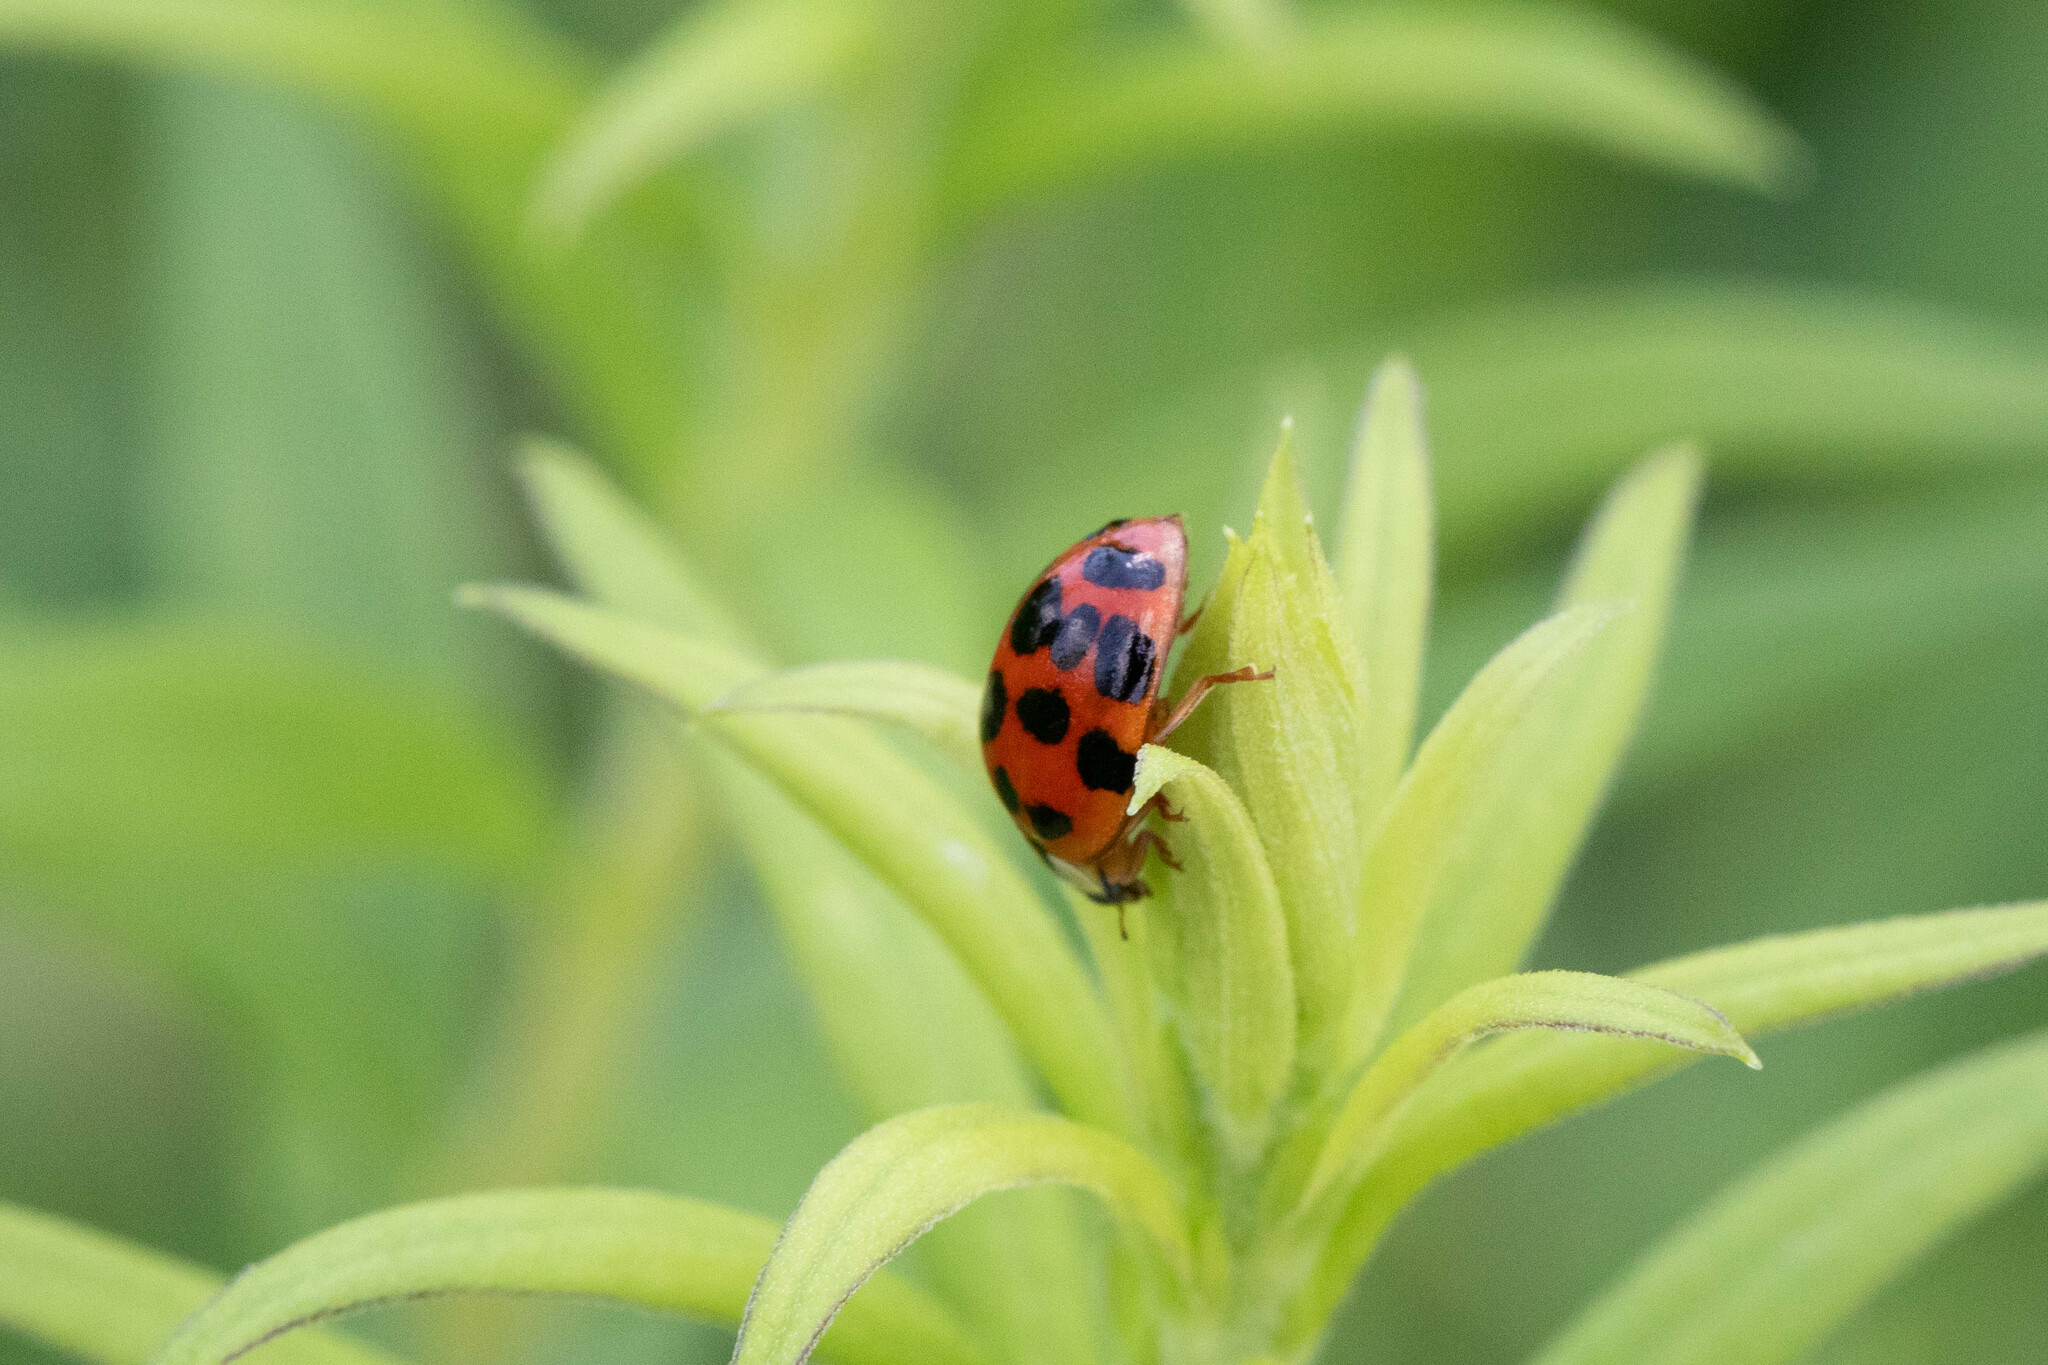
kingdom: Animalia
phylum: Arthropoda
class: Insecta
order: Coleoptera
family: Coccinellidae
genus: Harmonia
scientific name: Harmonia axyridis
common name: Harlequin ladybird
